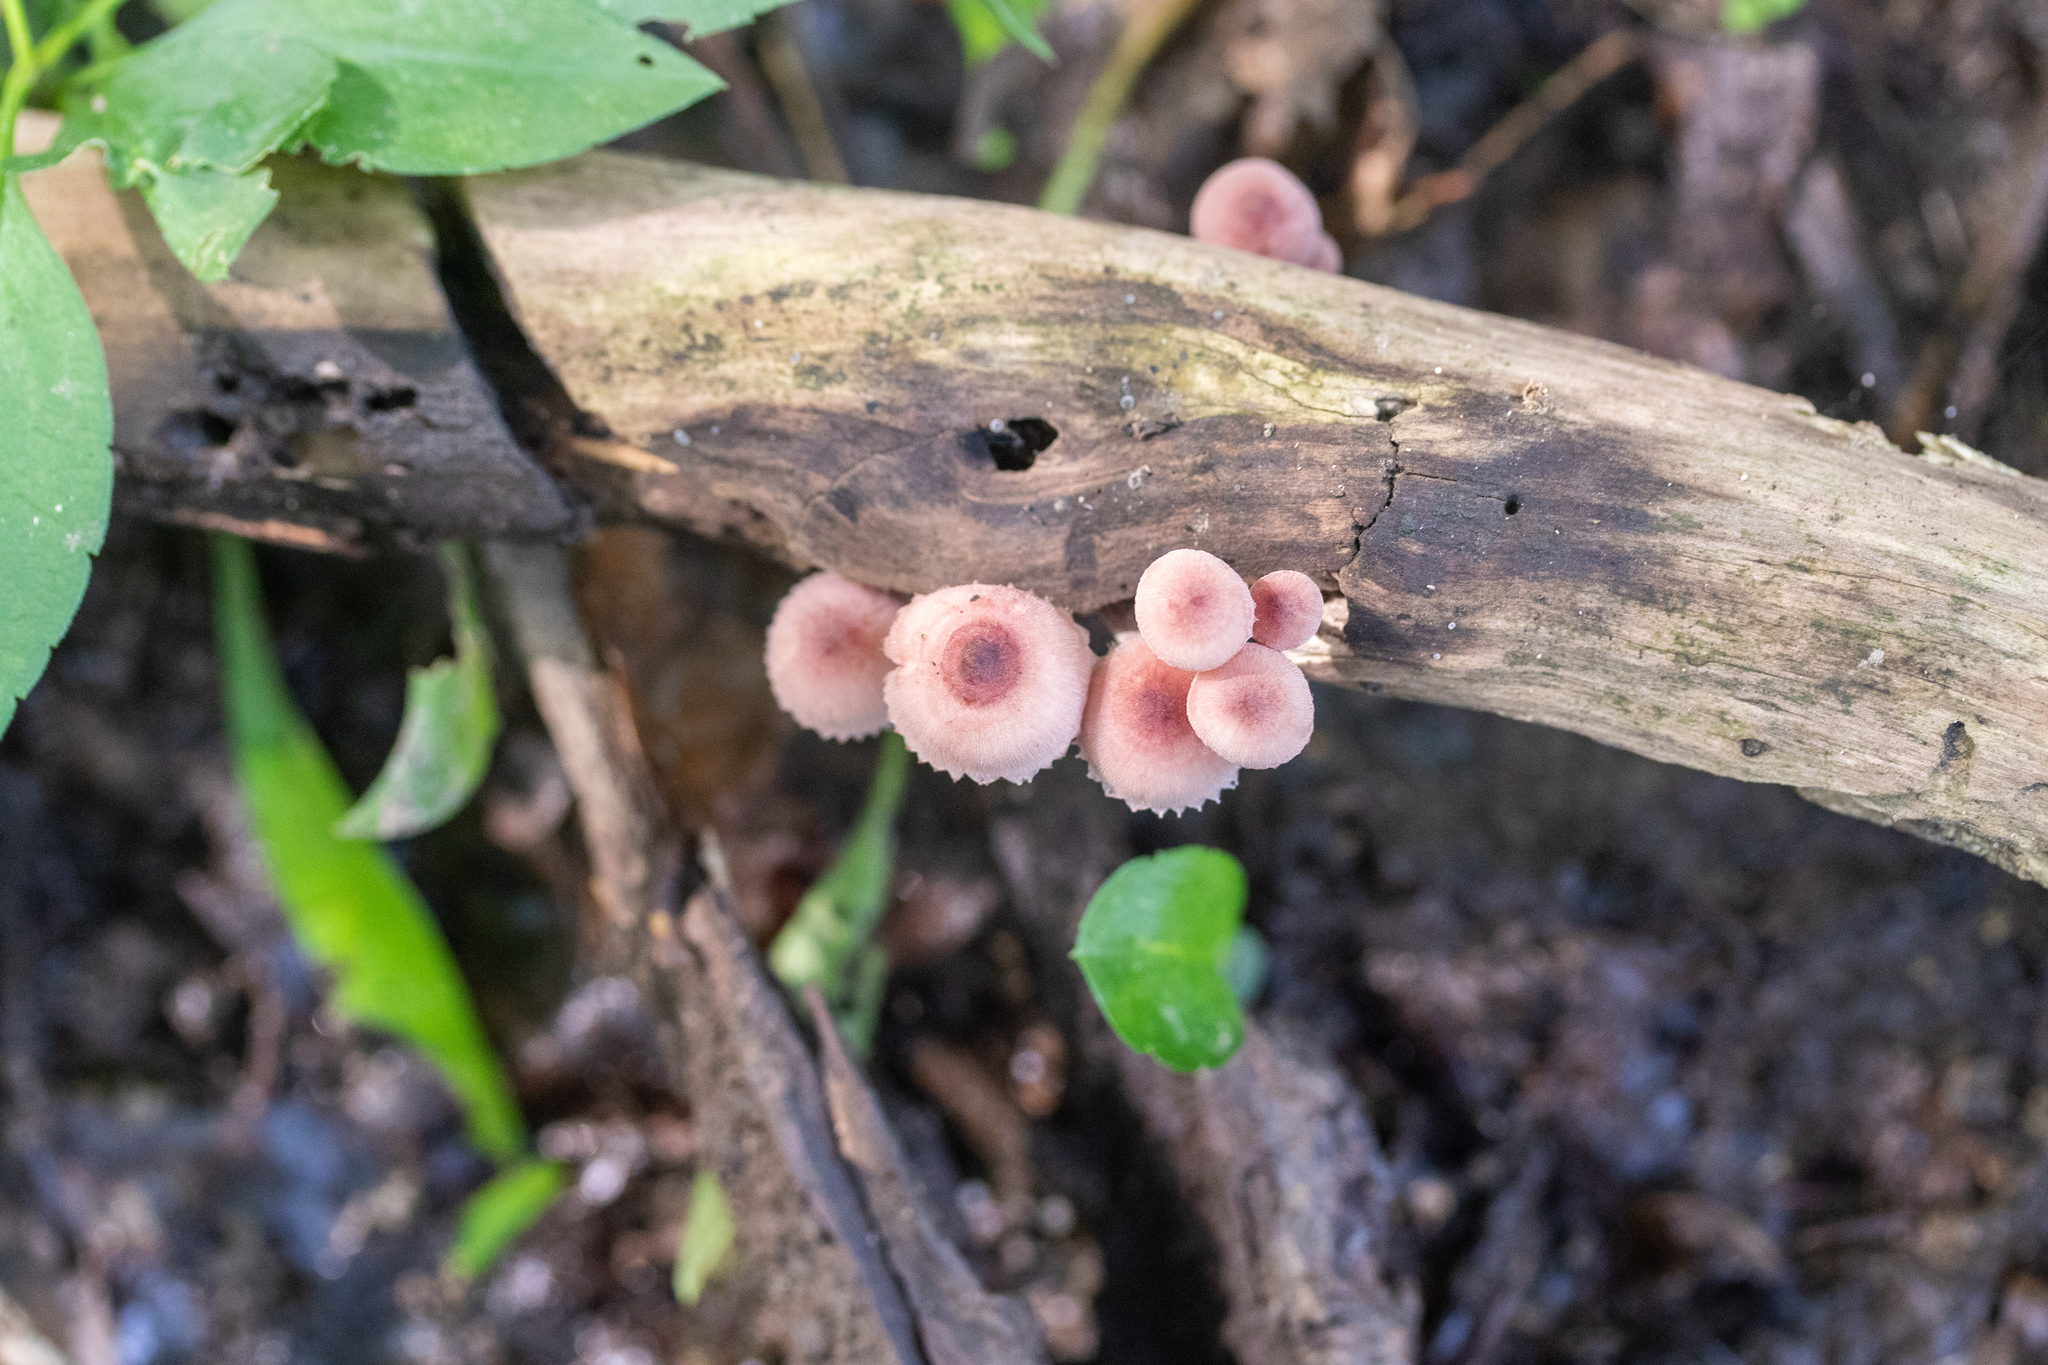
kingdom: Fungi
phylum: Basidiomycota
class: Agaricomycetes
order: Agaricales
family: Mycenaceae
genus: Mycena
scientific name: Mycena haematopus
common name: Burgundydrop bonnet
